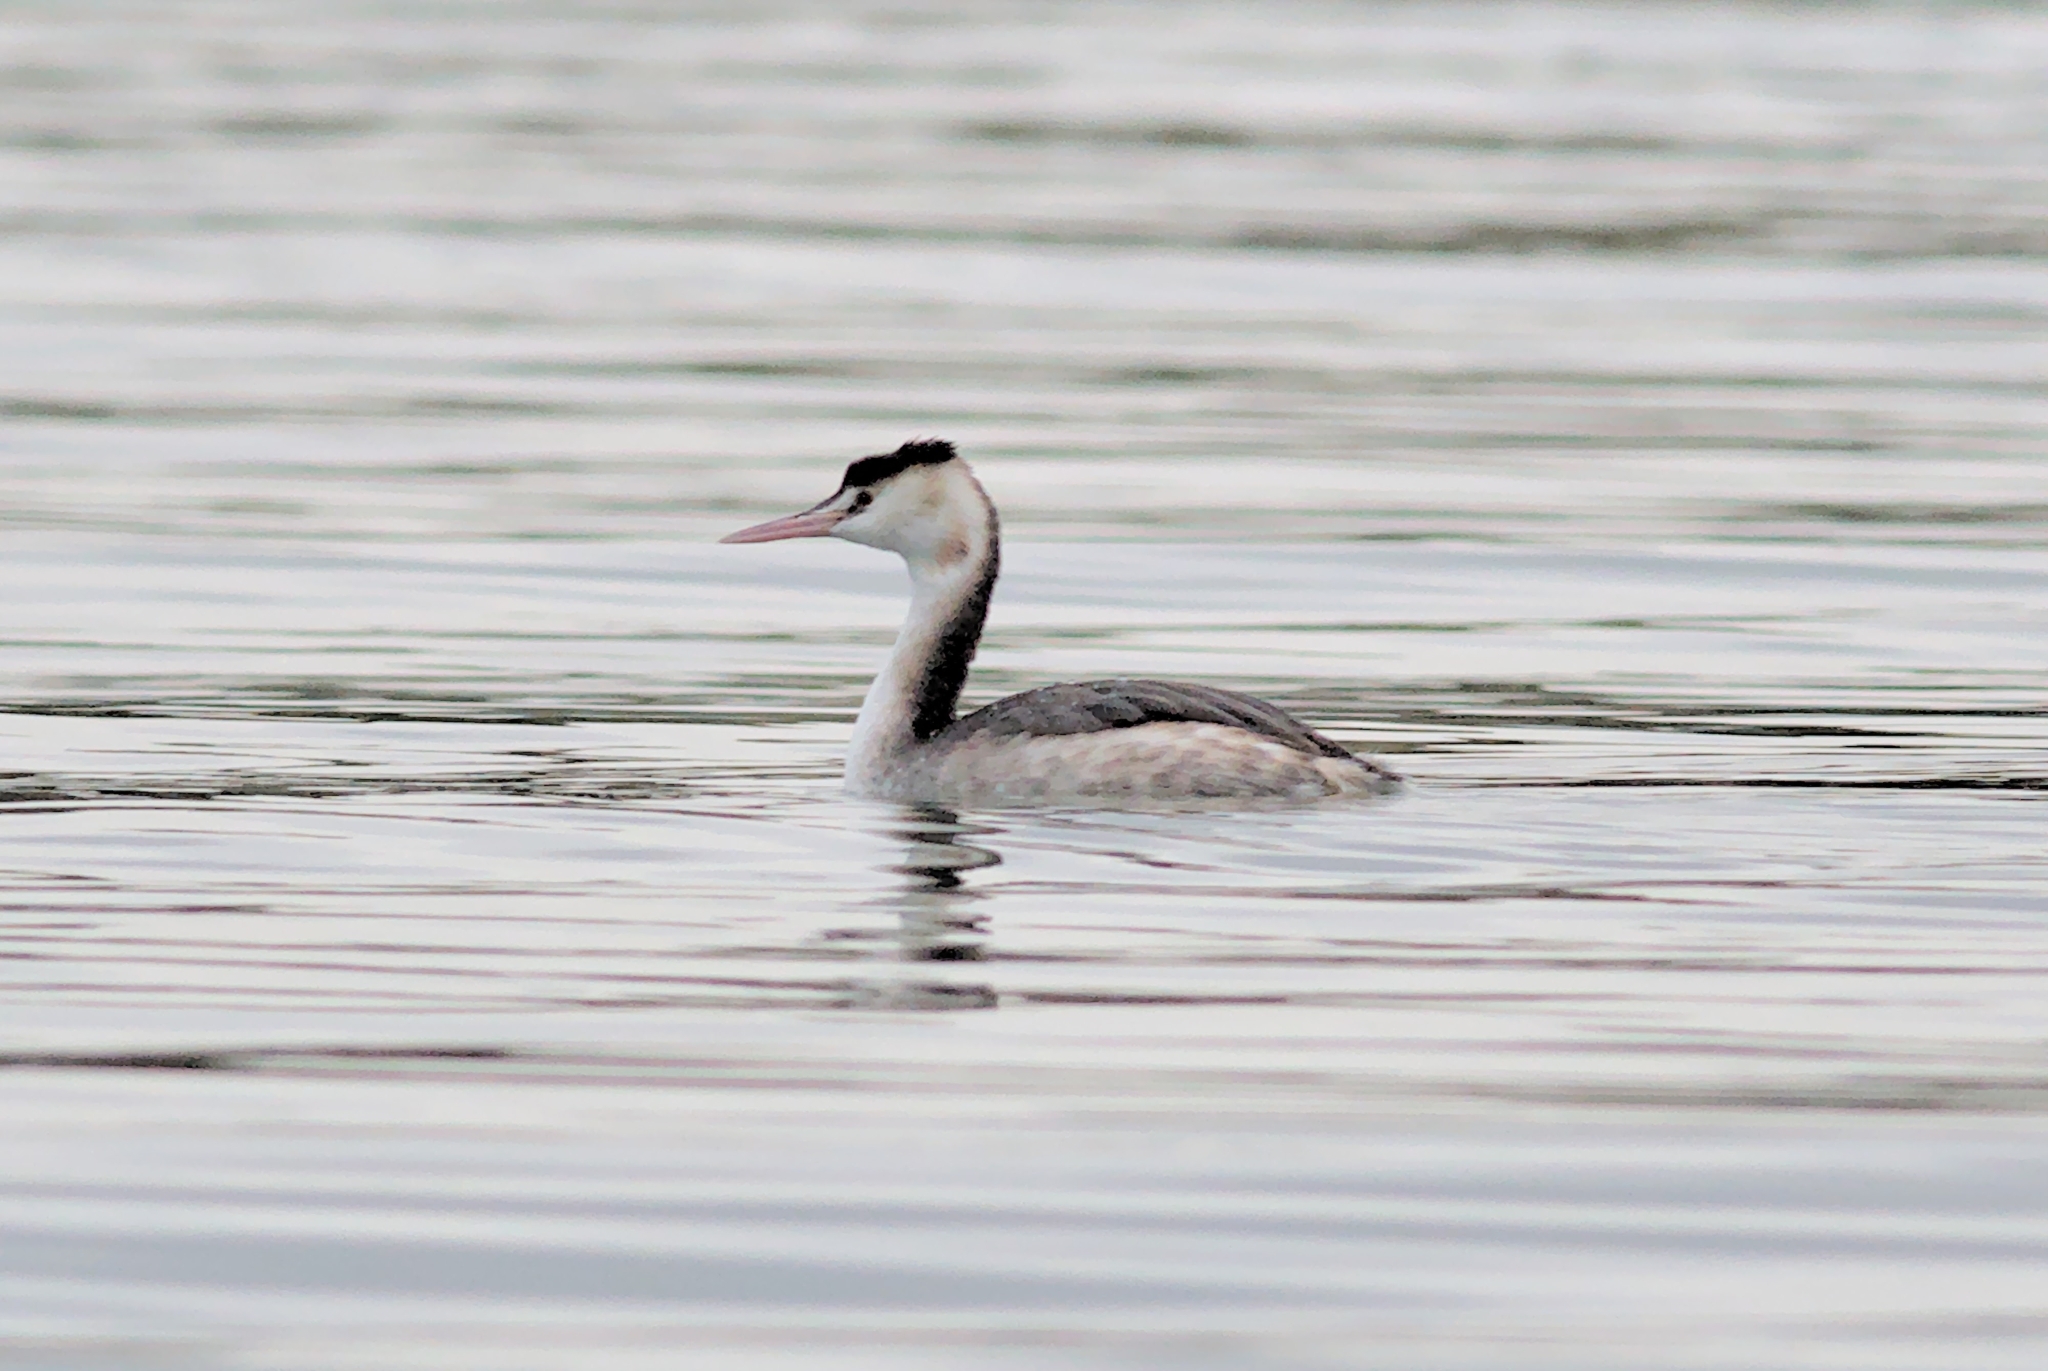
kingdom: Animalia
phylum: Chordata
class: Aves
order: Podicipediformes
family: Podicipedidae
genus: Podiceps
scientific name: Podiceps cristatus
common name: Great crested grebe
